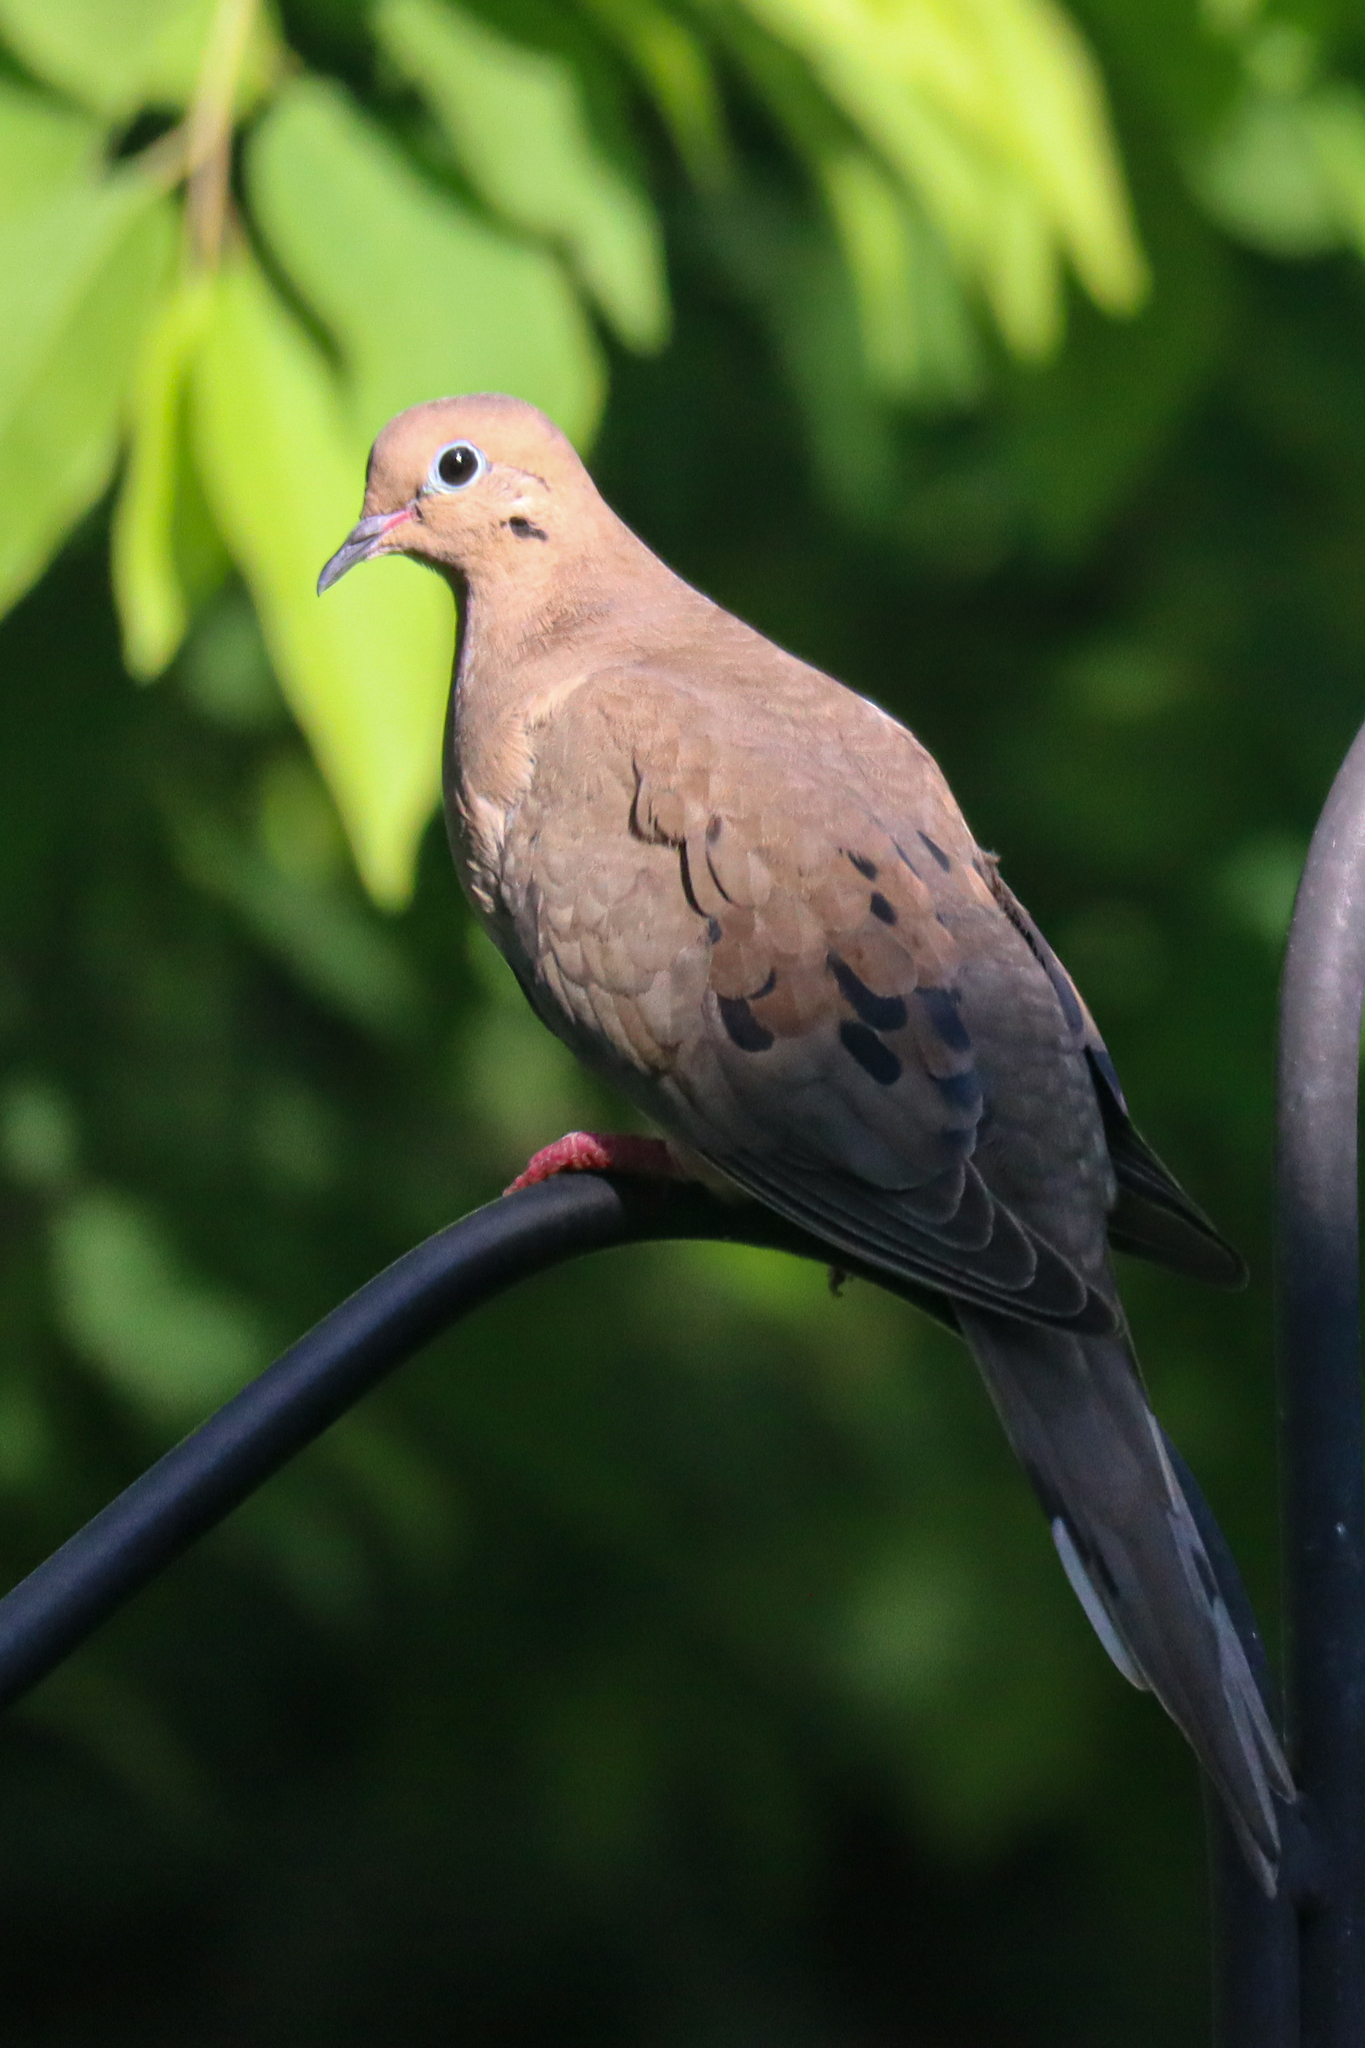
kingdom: Animalia
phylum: Chordata
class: Aves
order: Columbiformes
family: Columbidae
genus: Zenaida
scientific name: Zenaida macroura
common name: Mourning dove
